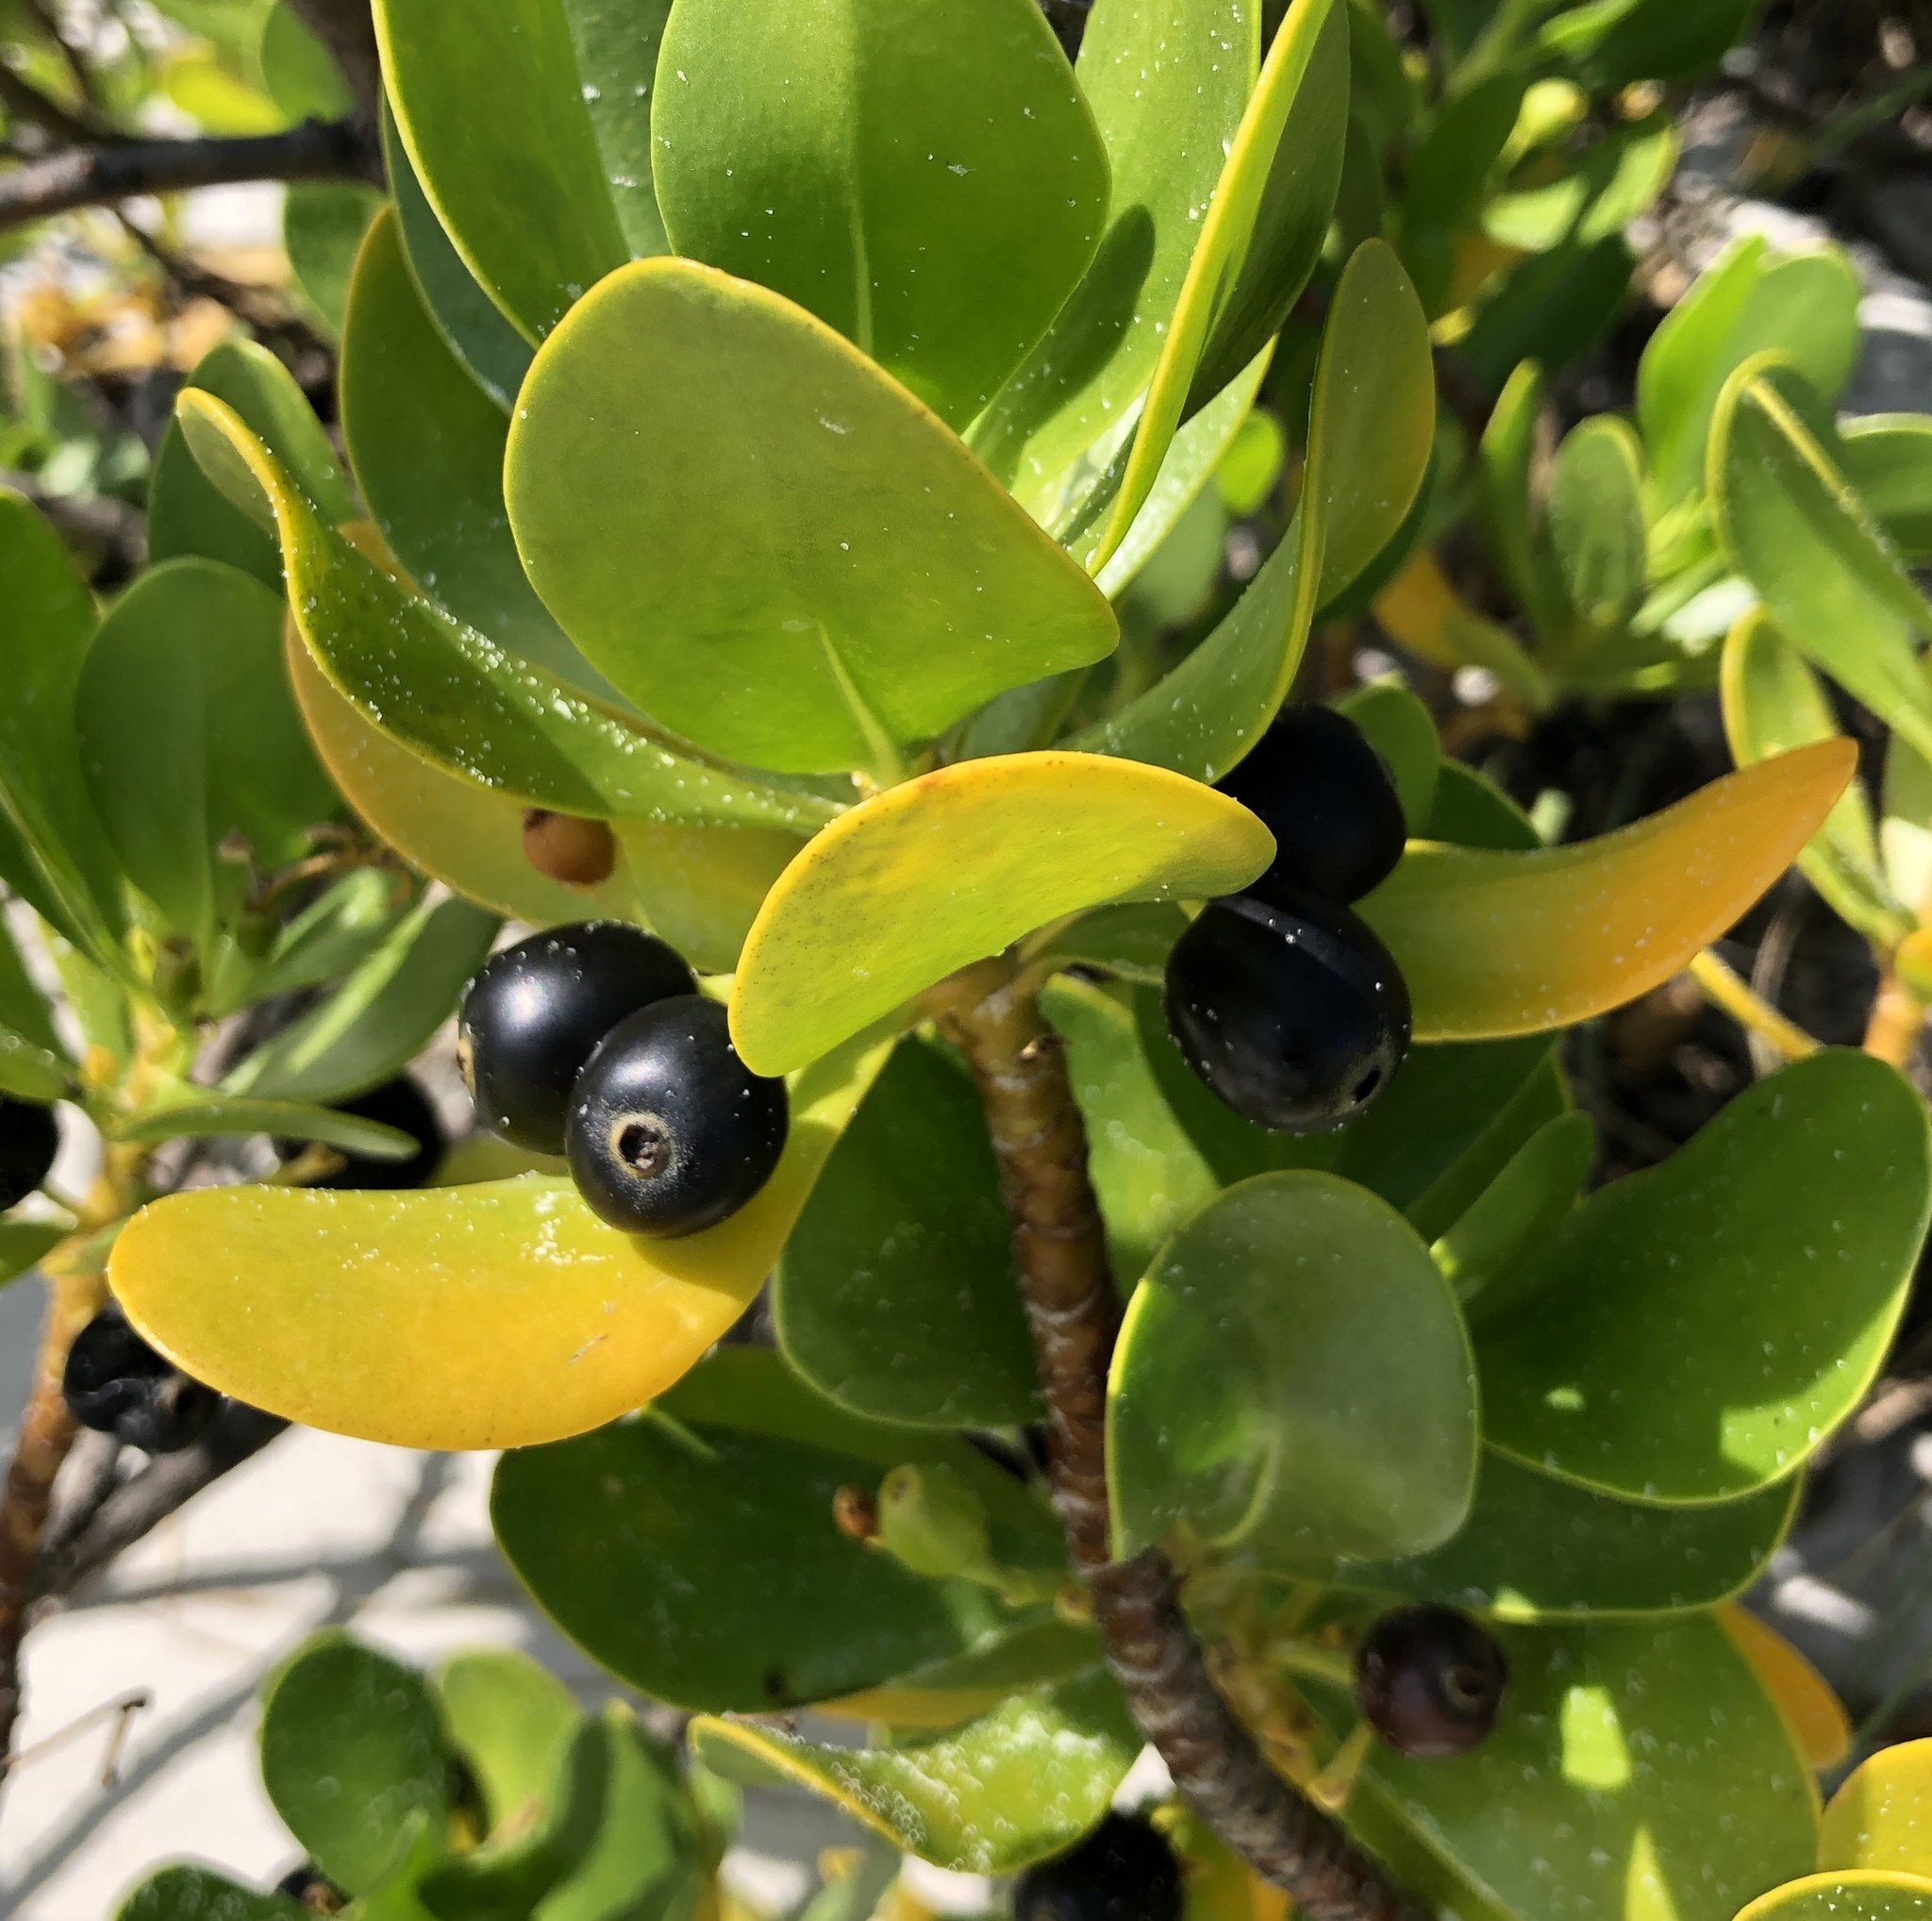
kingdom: Plantae
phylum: Tracheophyta
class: Magnoliopsida
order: Asterales
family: Goodeniaceae
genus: Scaevola
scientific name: Scaevola plumieri
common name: Gull feed
